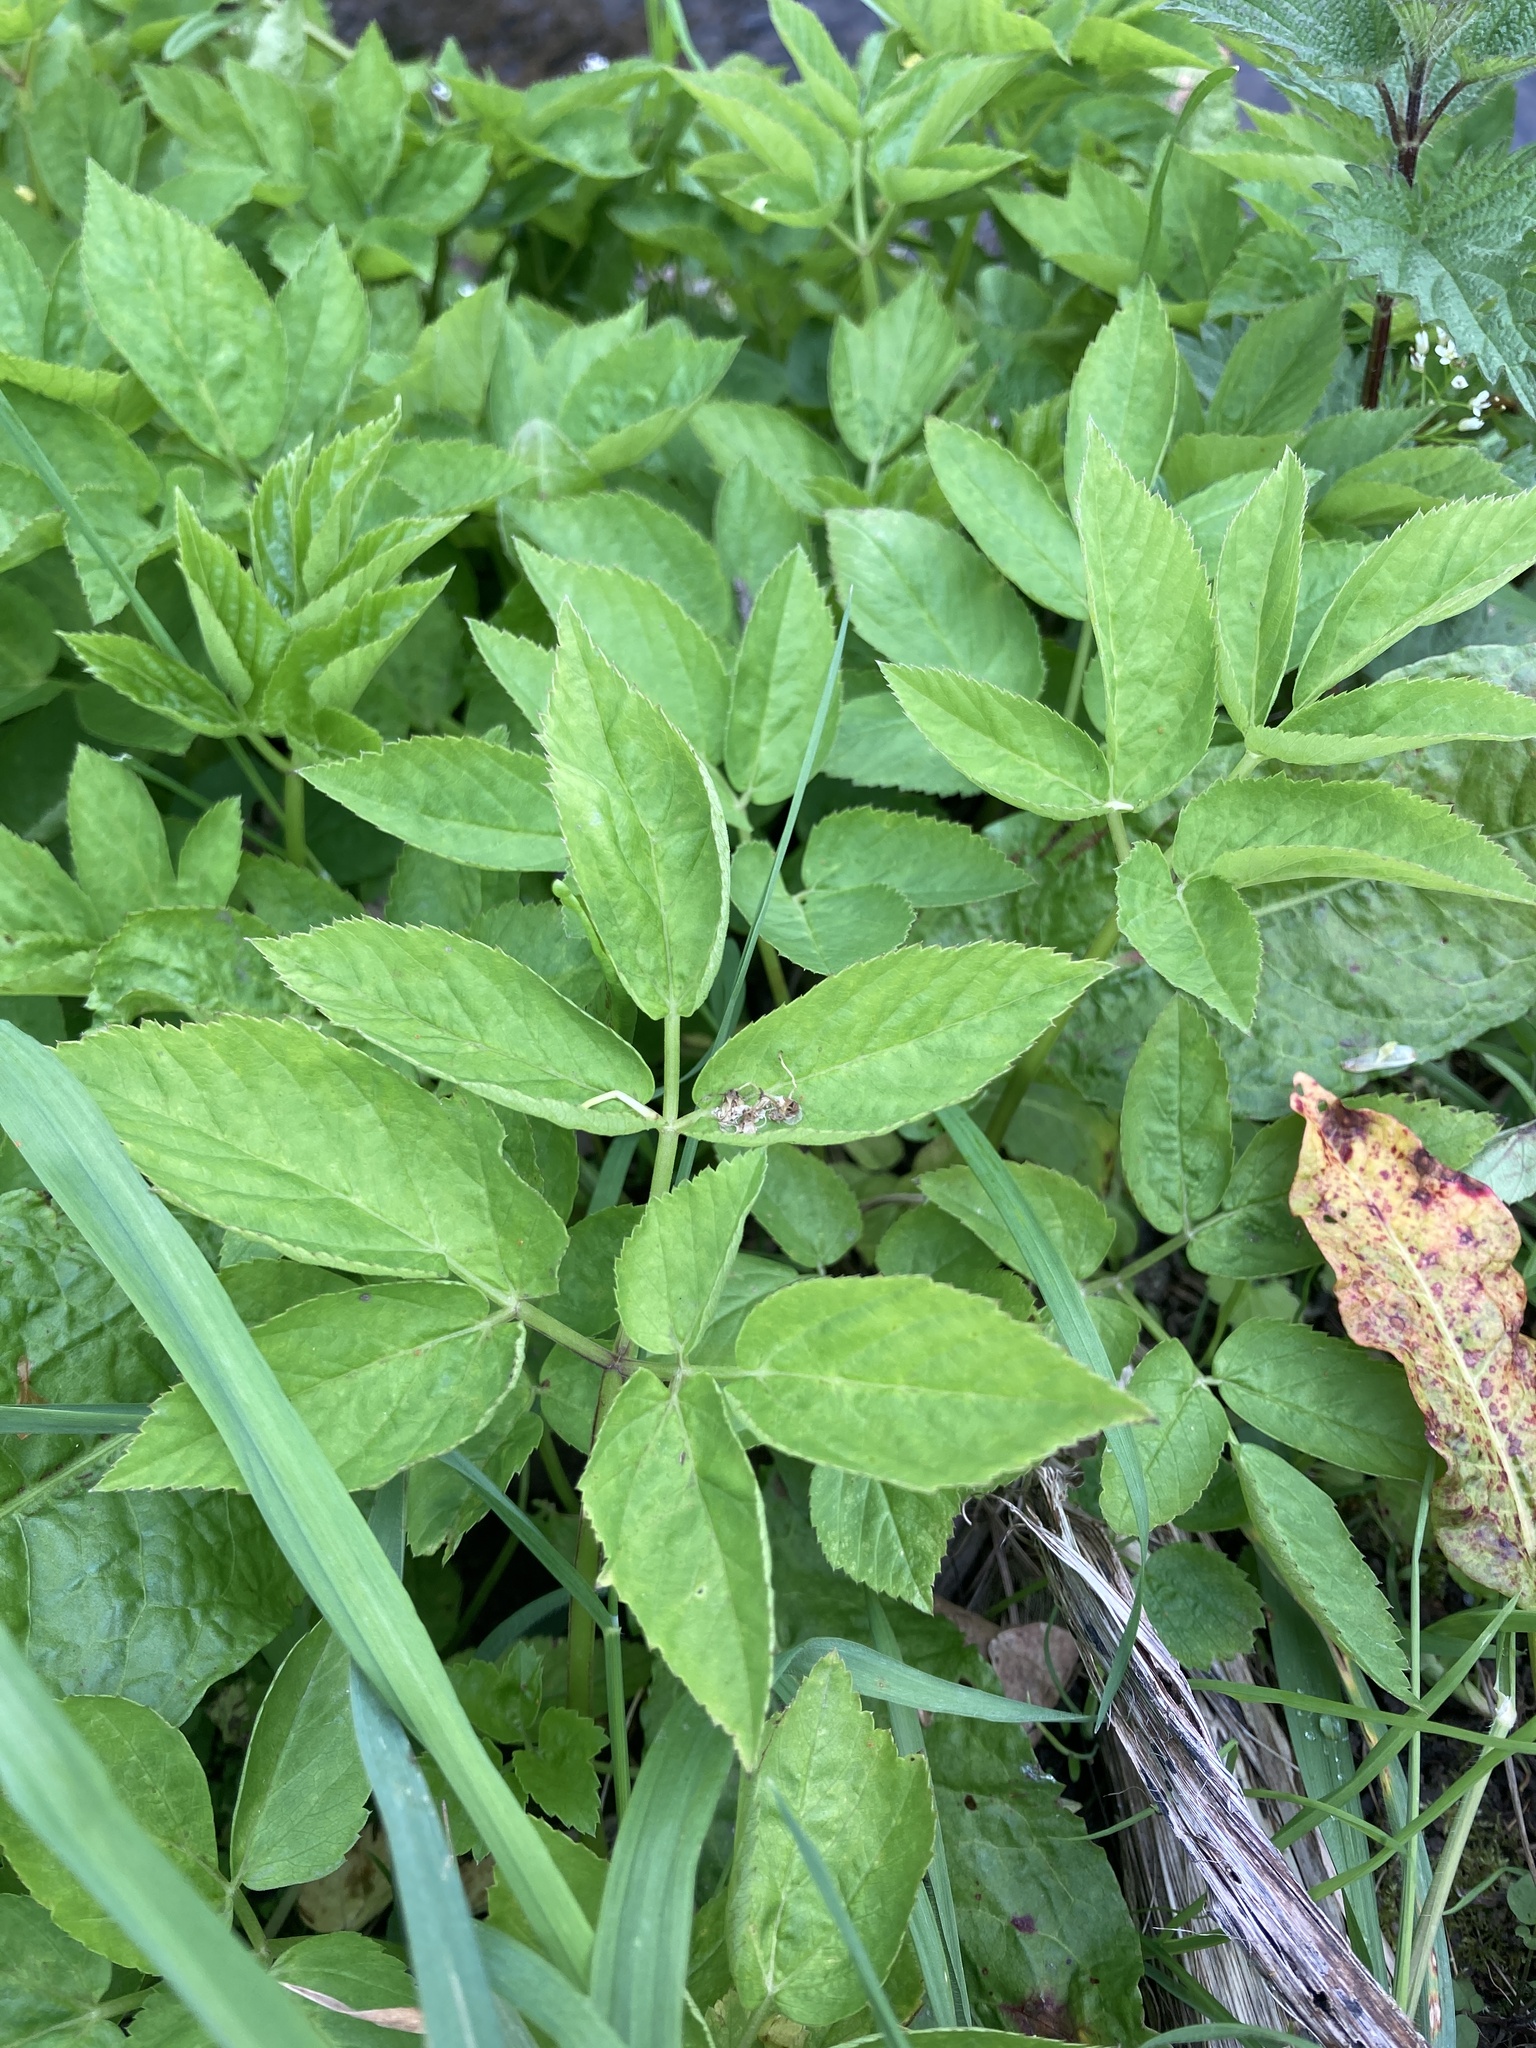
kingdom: Plantae
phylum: Tracheophyta
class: Magnoliopsida
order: Apiales
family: Apiaceae
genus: Aegopodium
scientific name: Aegopodium podagraria
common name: Ground-elder
